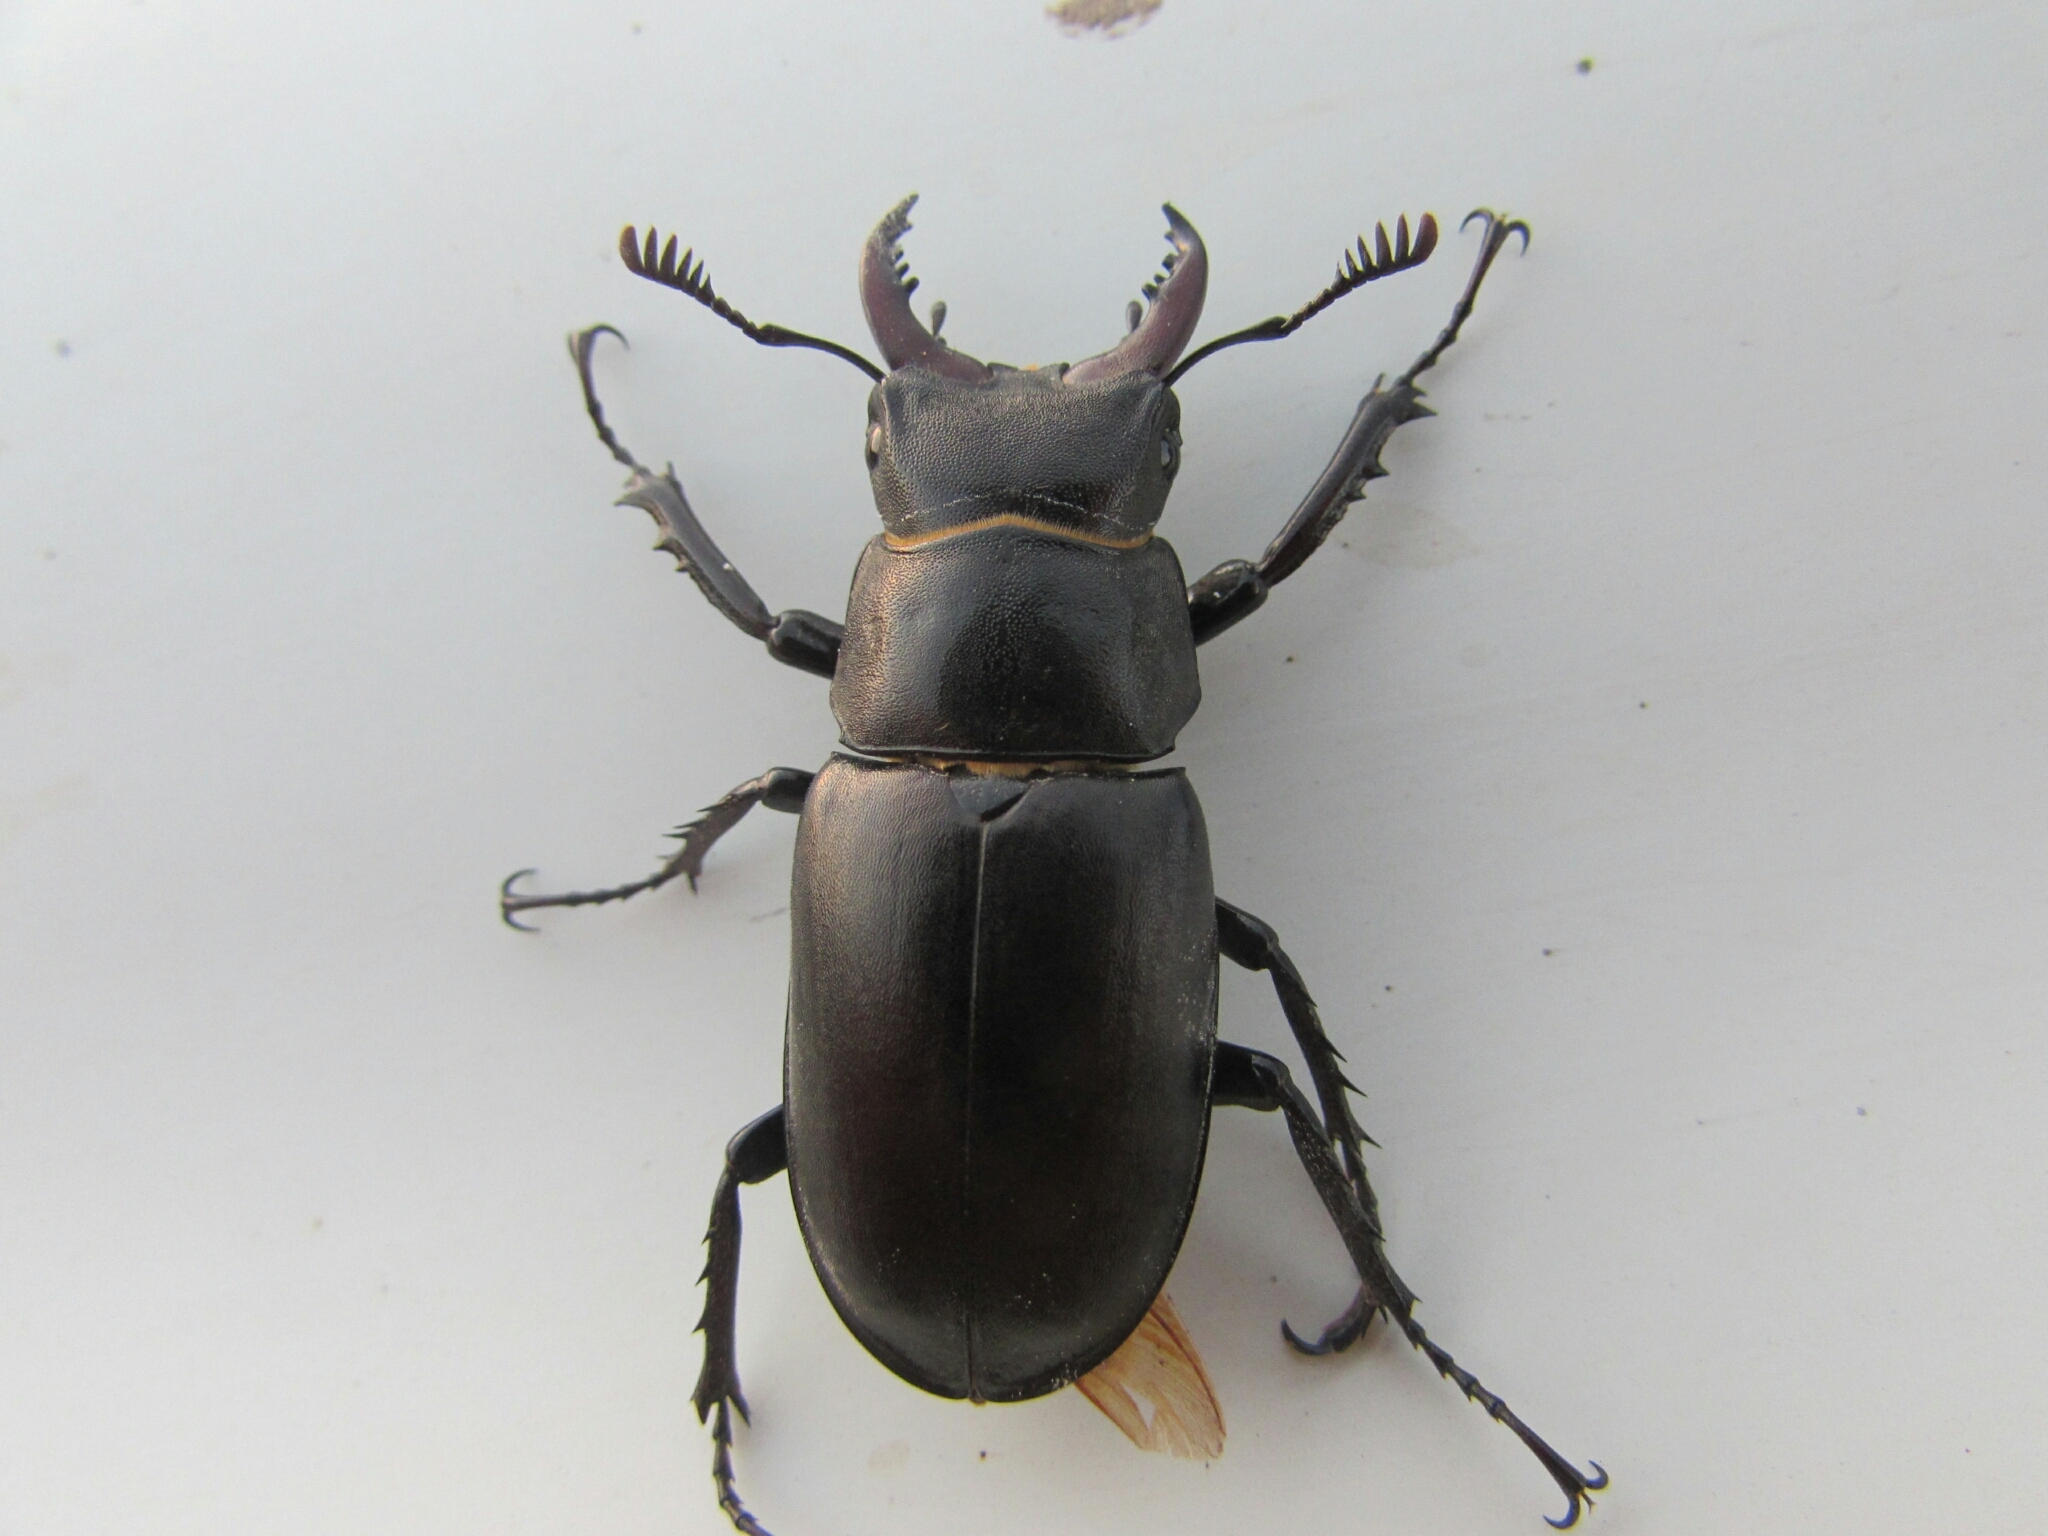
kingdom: Animalia
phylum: Arthropoda
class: Insecta
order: Coleoptera
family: Lucanidae
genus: Lucanus
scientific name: Lucanus tetraodon
